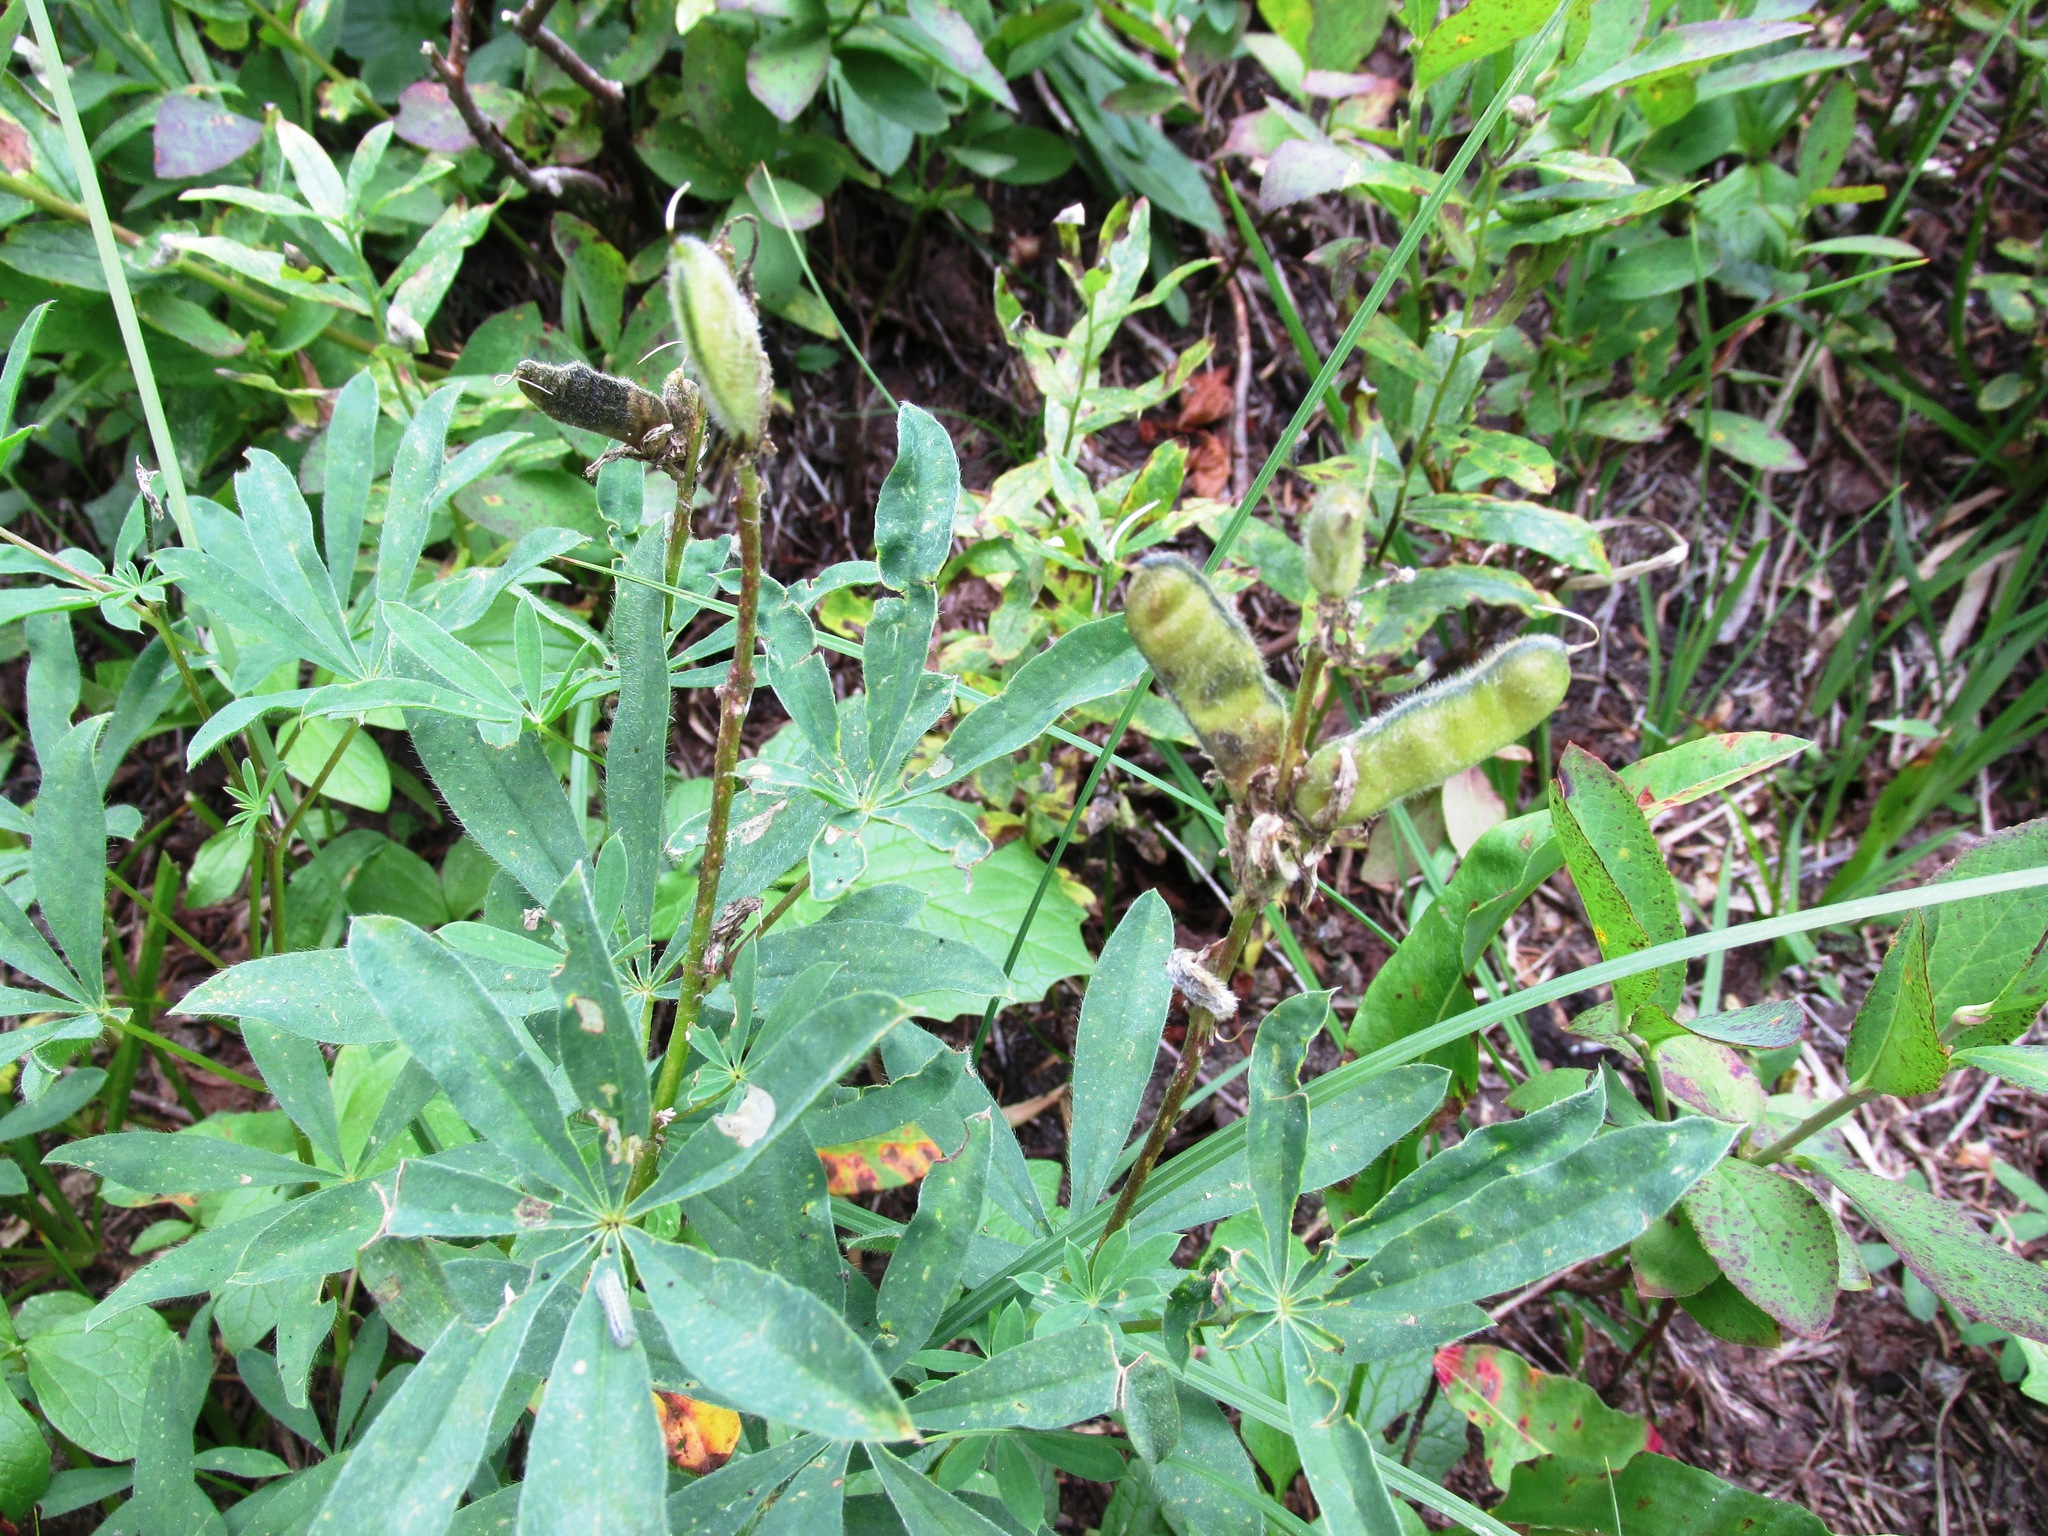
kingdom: Plantae
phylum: Tracheophyta
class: Magnoliopsida
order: Fabales
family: Fabaceae
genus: Lupinus
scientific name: Lupinus arcticus
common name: Arctic lupine
